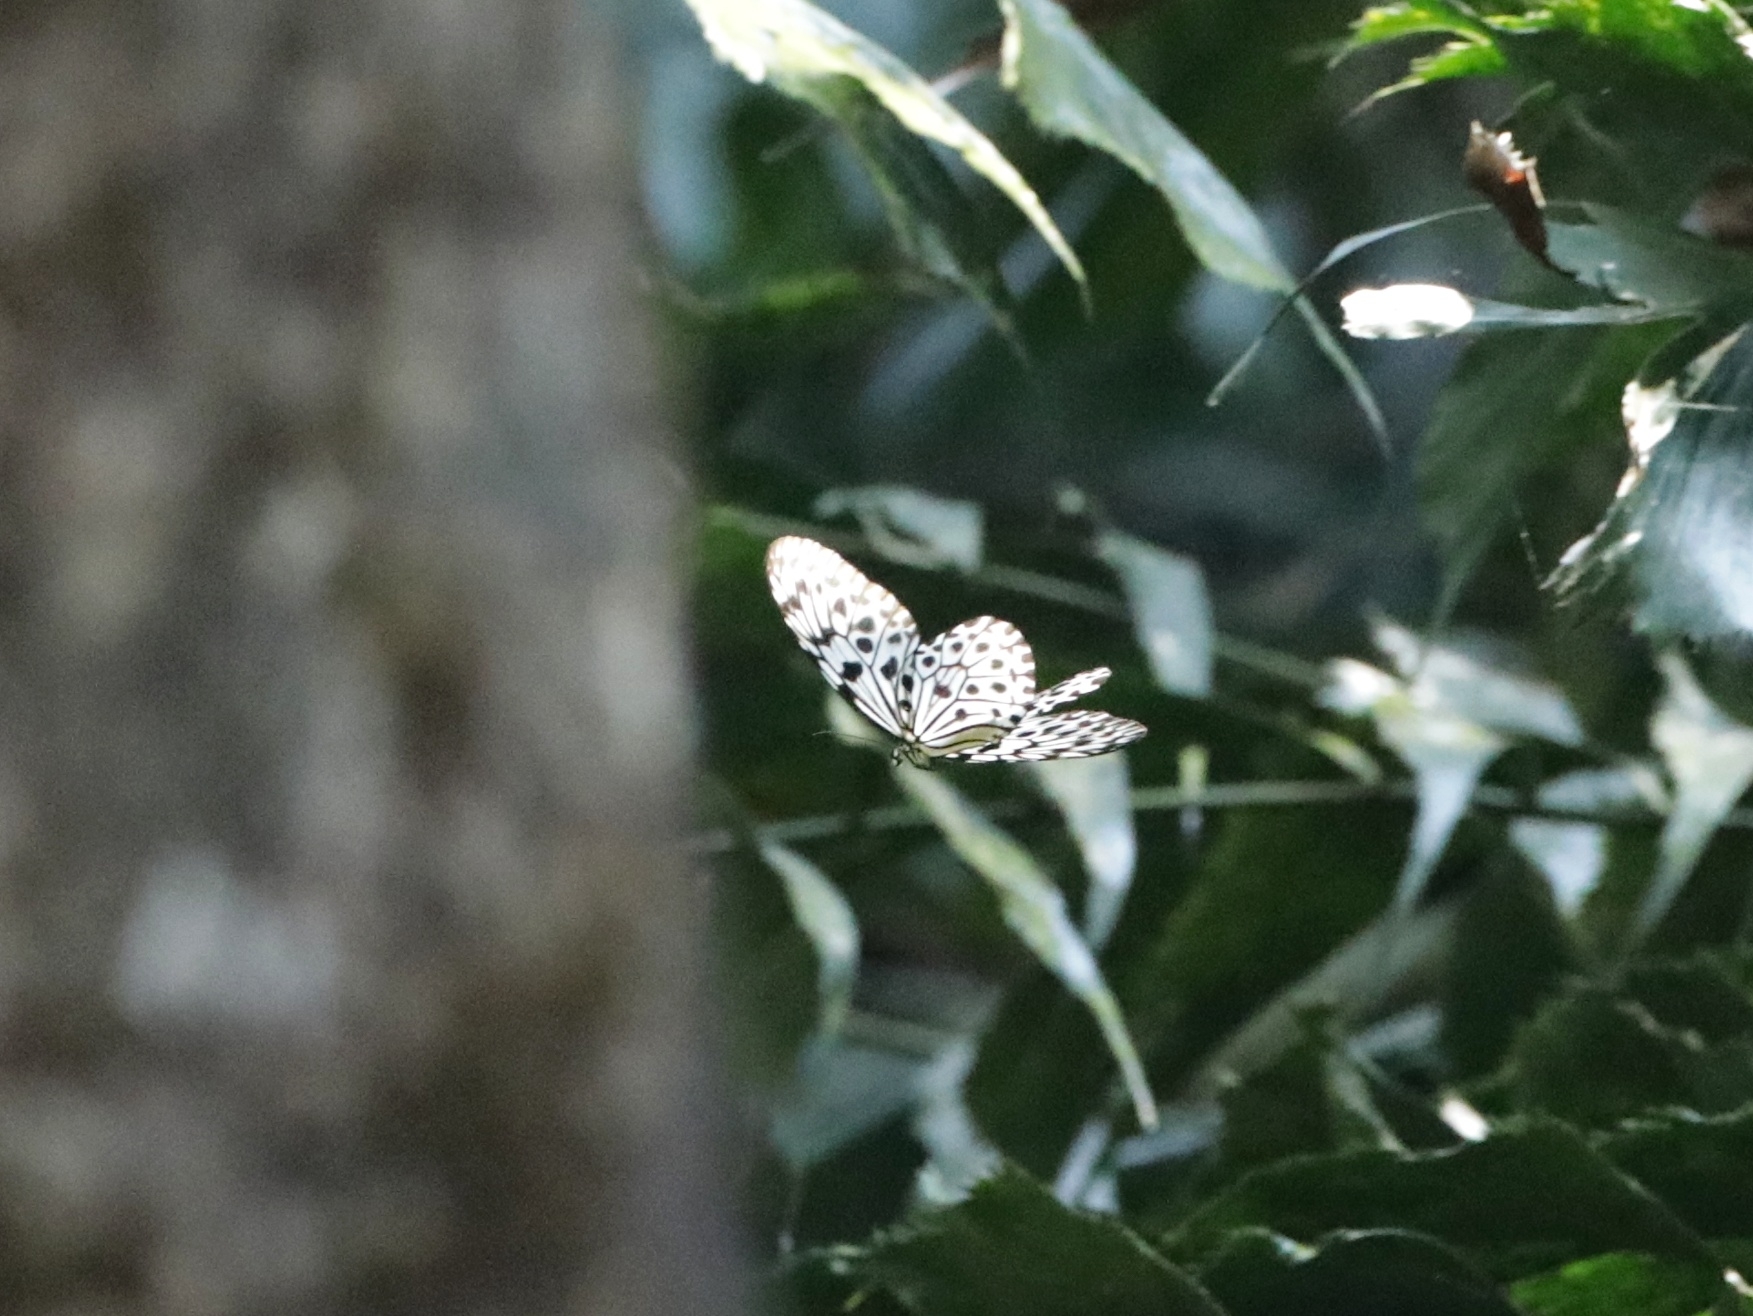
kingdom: Animalia
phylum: Arthropoda
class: Insecta
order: Lepidoptera
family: Nymphalidae
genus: Idea
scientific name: Idea malabarica
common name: Malabar tree-nymph
